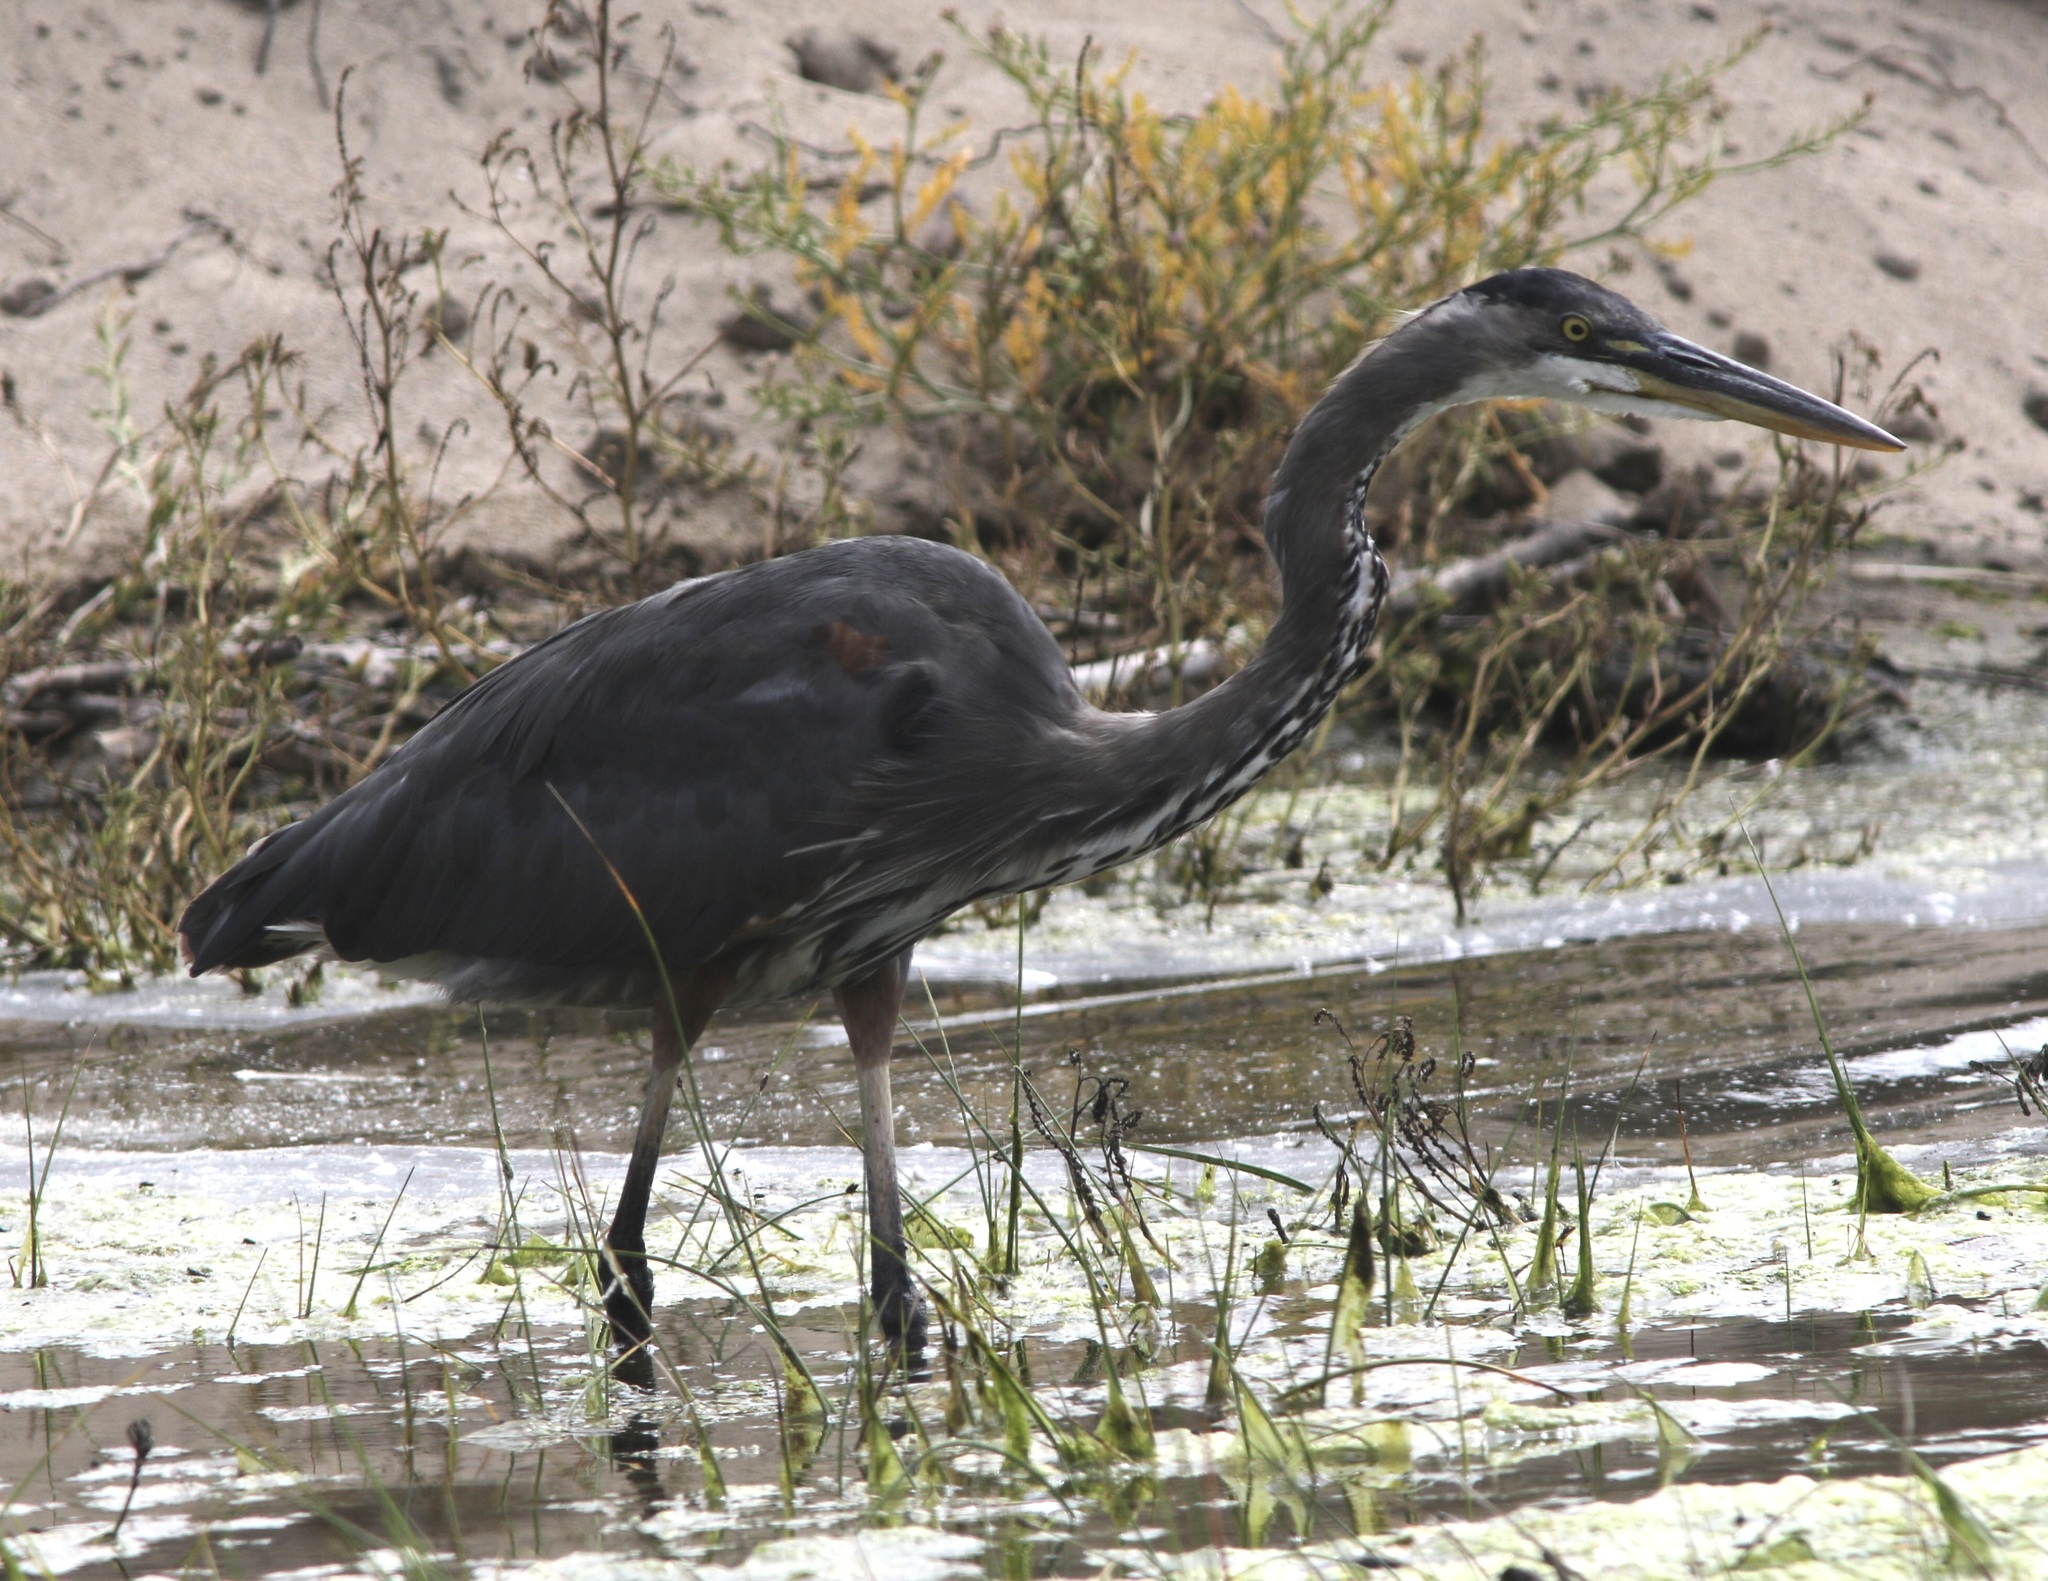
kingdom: Animalia
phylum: Chordata
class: Aves
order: Pelecaniformes
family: Ardeidae
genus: Ardea
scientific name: Ardea herodias
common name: Great blue heron
